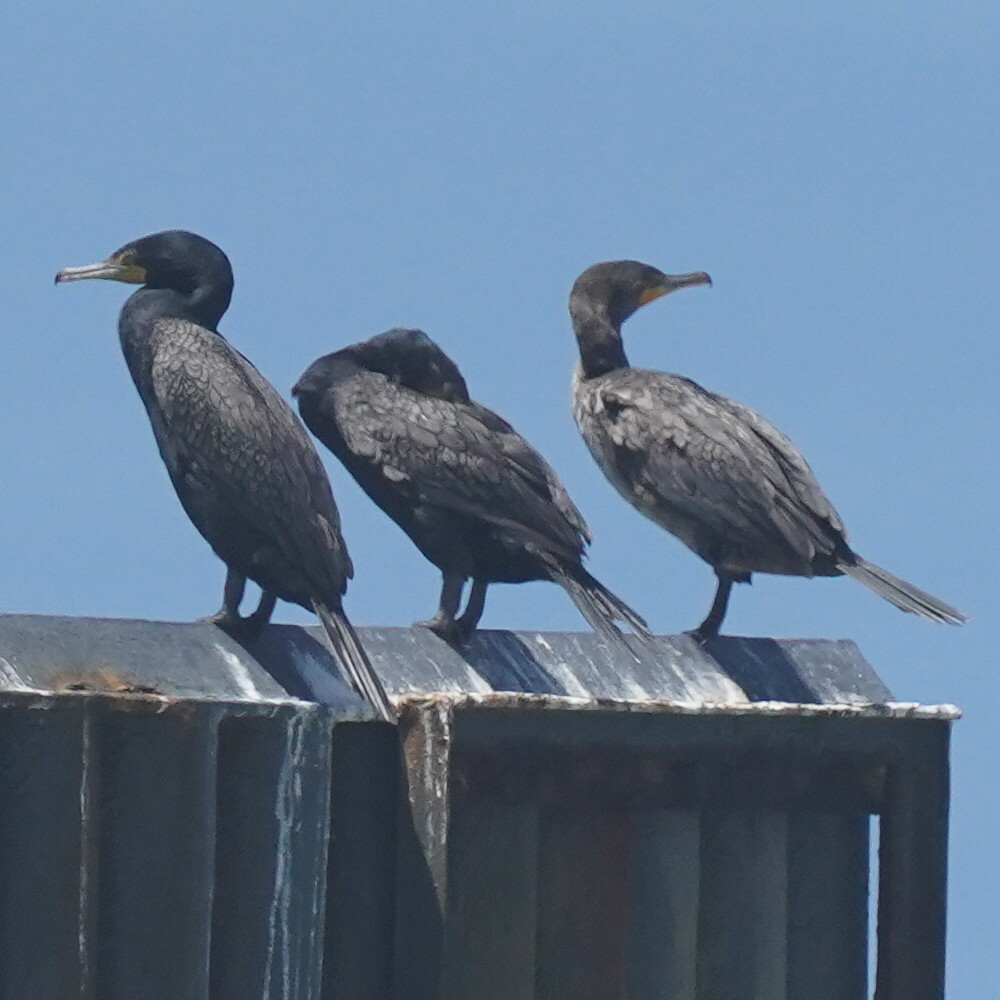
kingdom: Animalia
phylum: Chordata
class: Aves
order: Suliformes
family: Phalacrocoracidae
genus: Phalacrocorax
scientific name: Phalacrocorax auritus
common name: Double-crested cormorant
